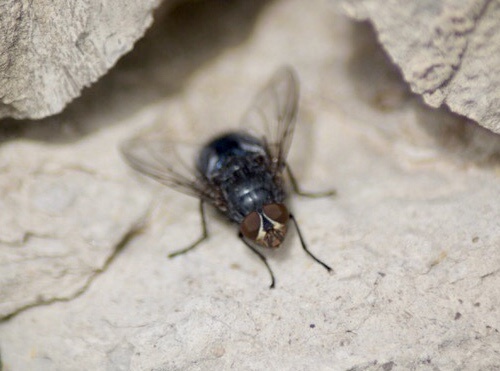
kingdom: Animalia
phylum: Arthropoda
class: Insecta
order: Diptera
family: Calliphoridae
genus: Calliphora
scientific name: Calliphora vicina
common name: Common blow flie
